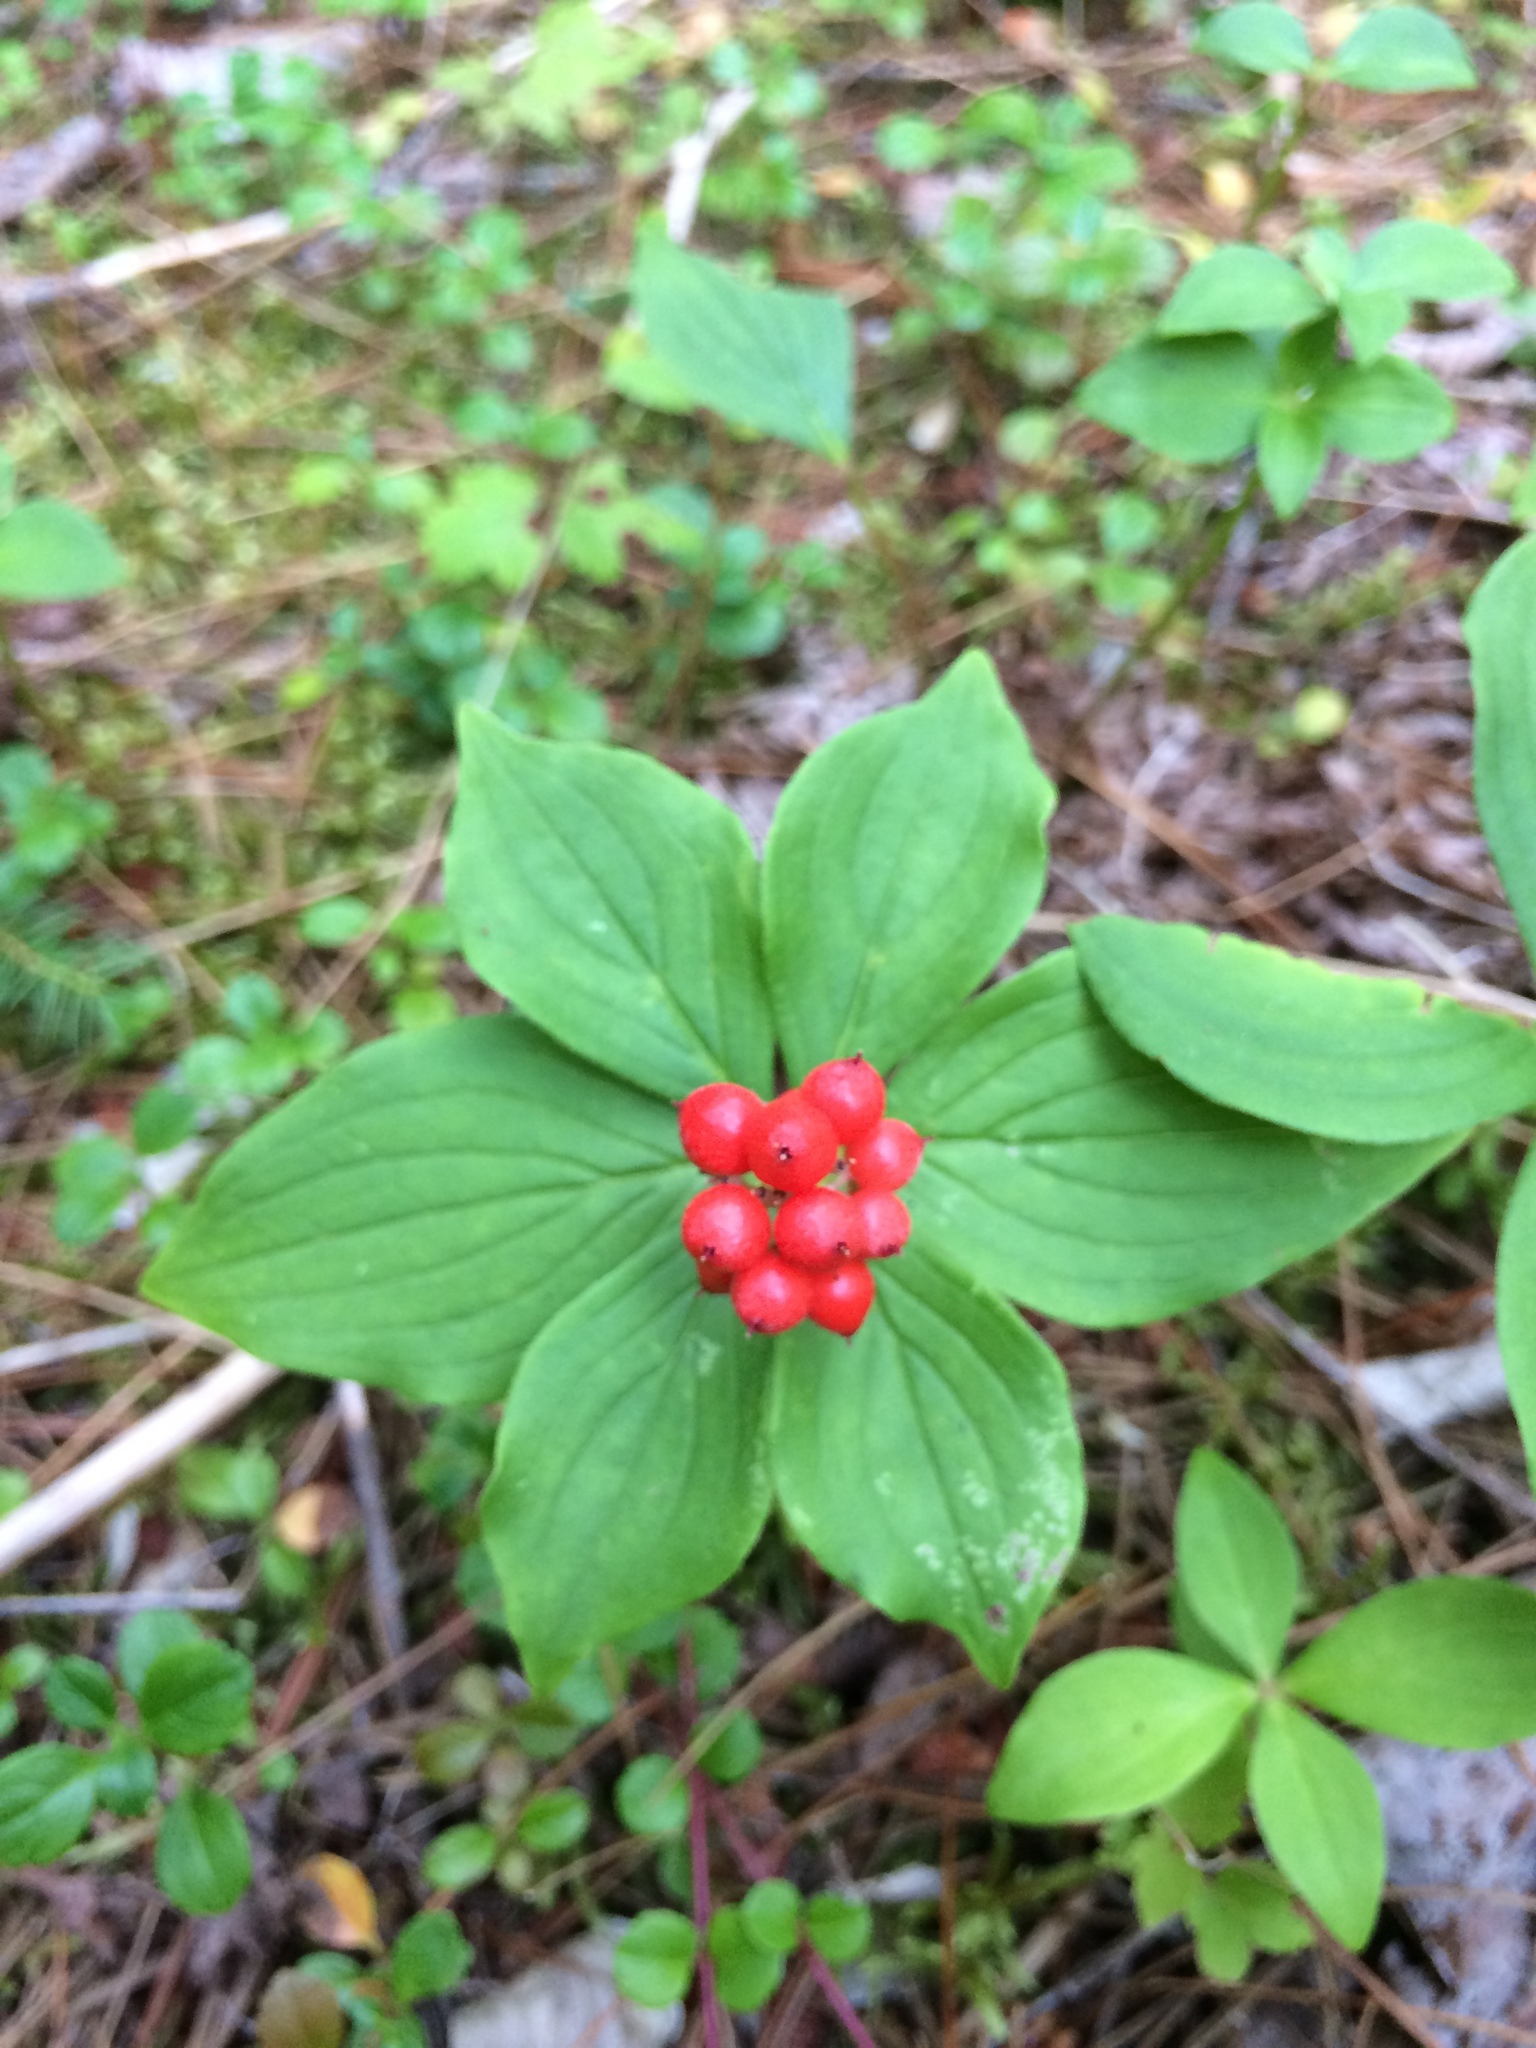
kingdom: Plantae
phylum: Tracheophyta
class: Magnoliopsida
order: Cornales
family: Cornaceae
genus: Cornus
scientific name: Cornus canadensis
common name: Creeping dogwood
